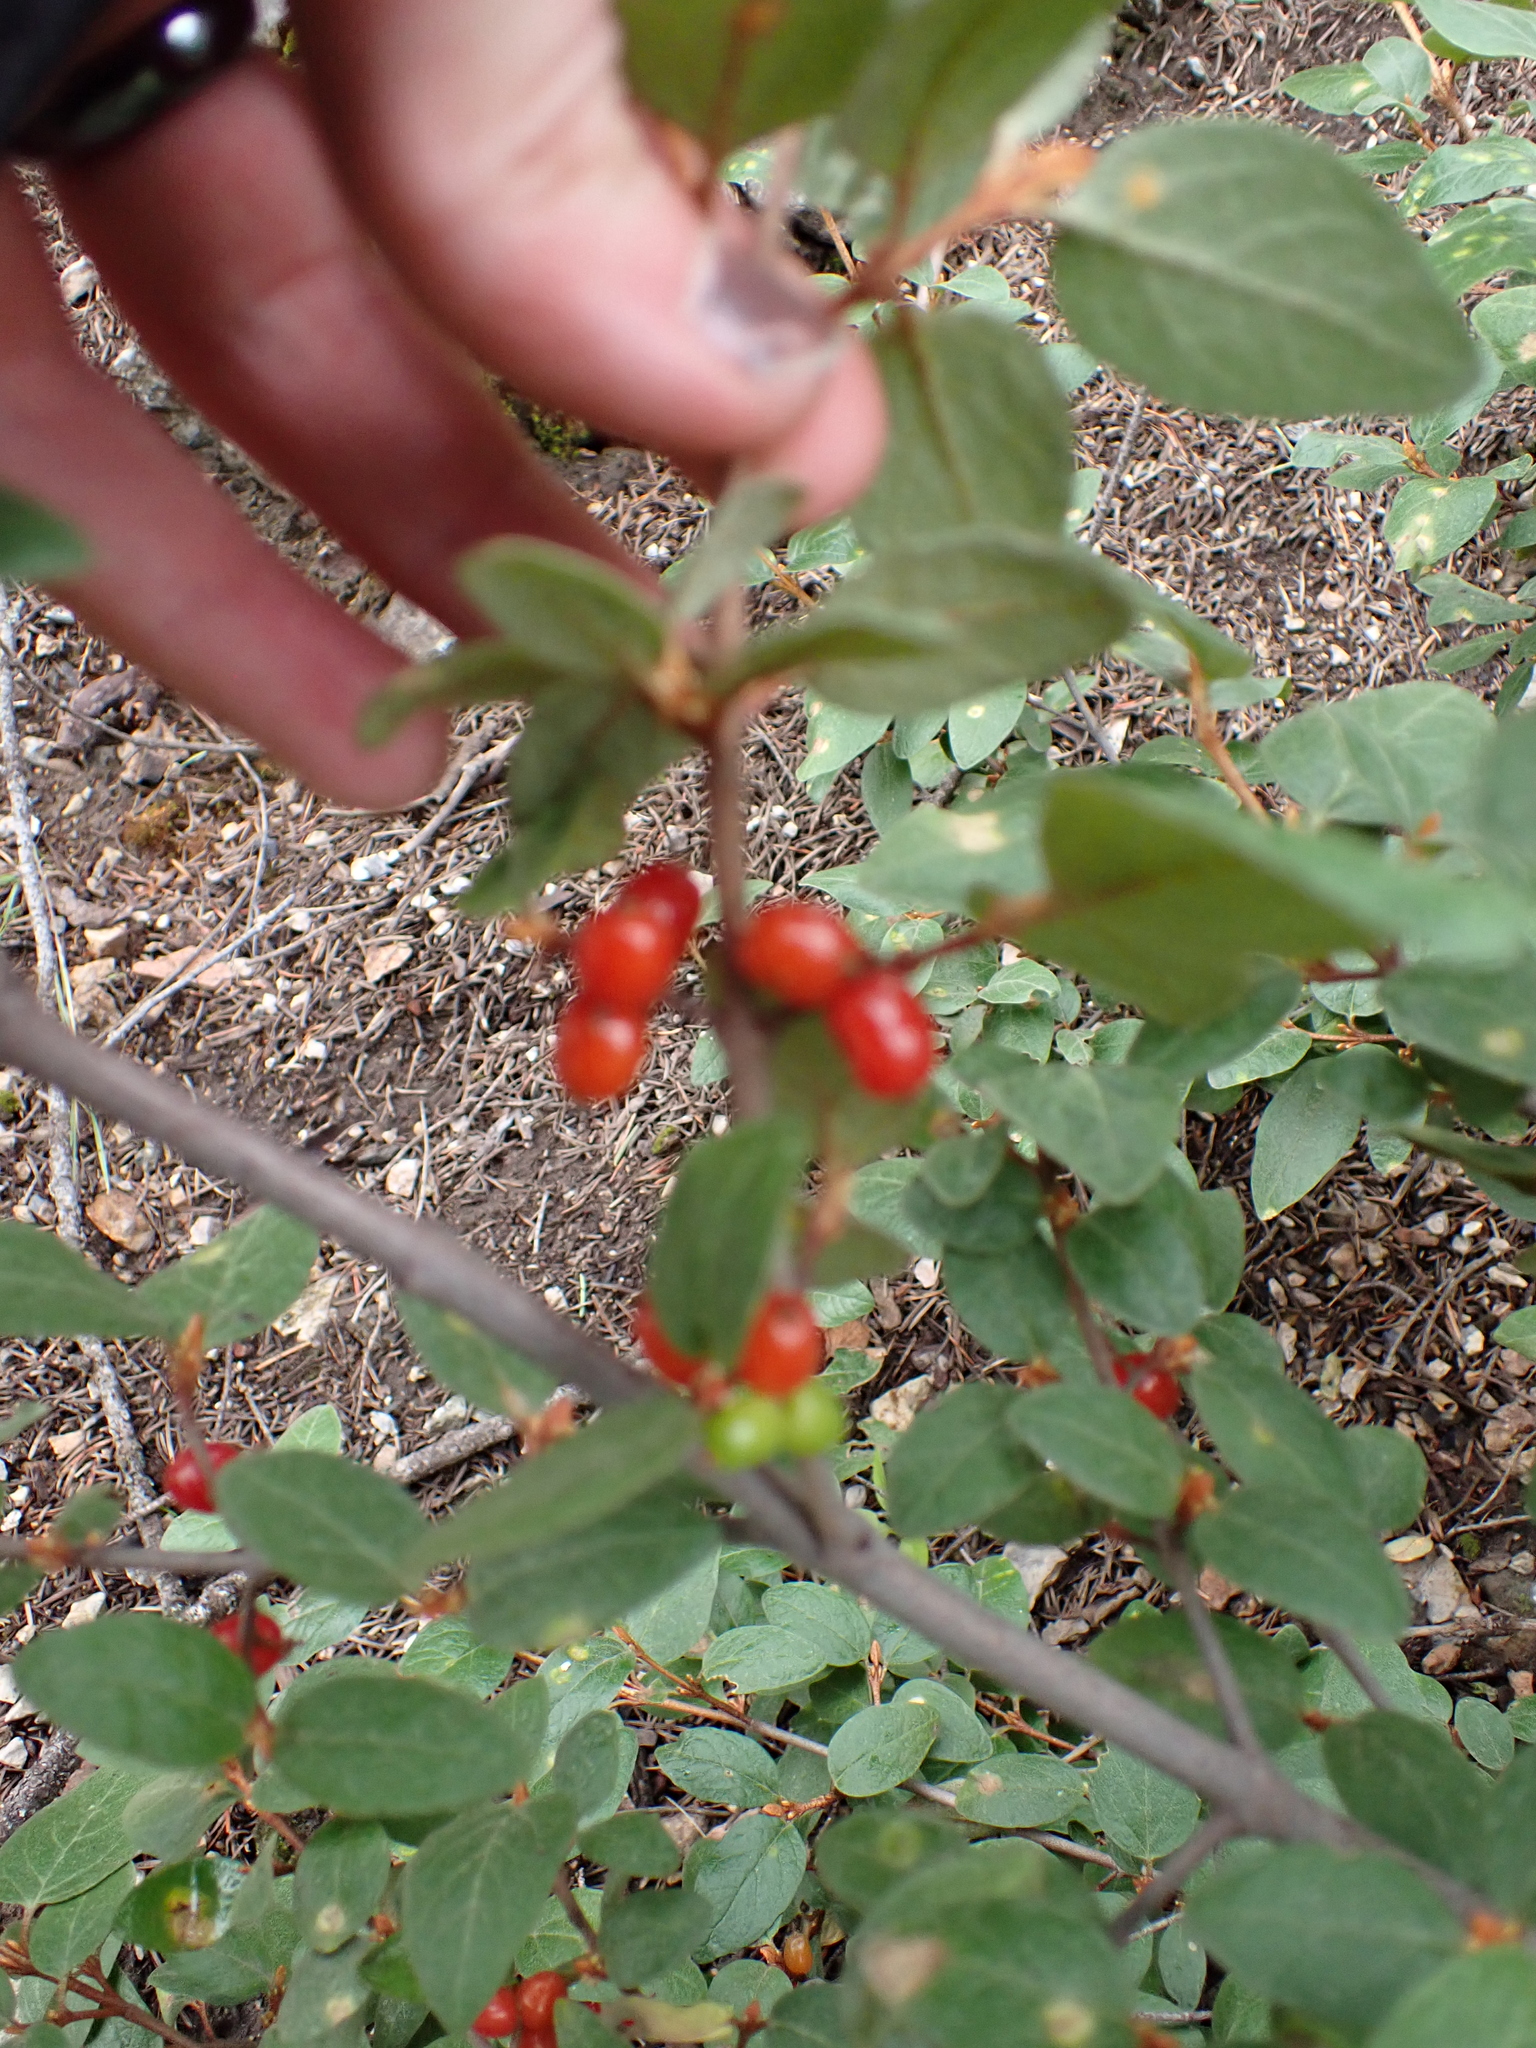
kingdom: Plantae
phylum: Tracheophyta
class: Magnoliopsida
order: Rosales
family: Elaeagnaceae
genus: Shepherdia
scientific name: Shepherdia canadensis
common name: Soapberry
